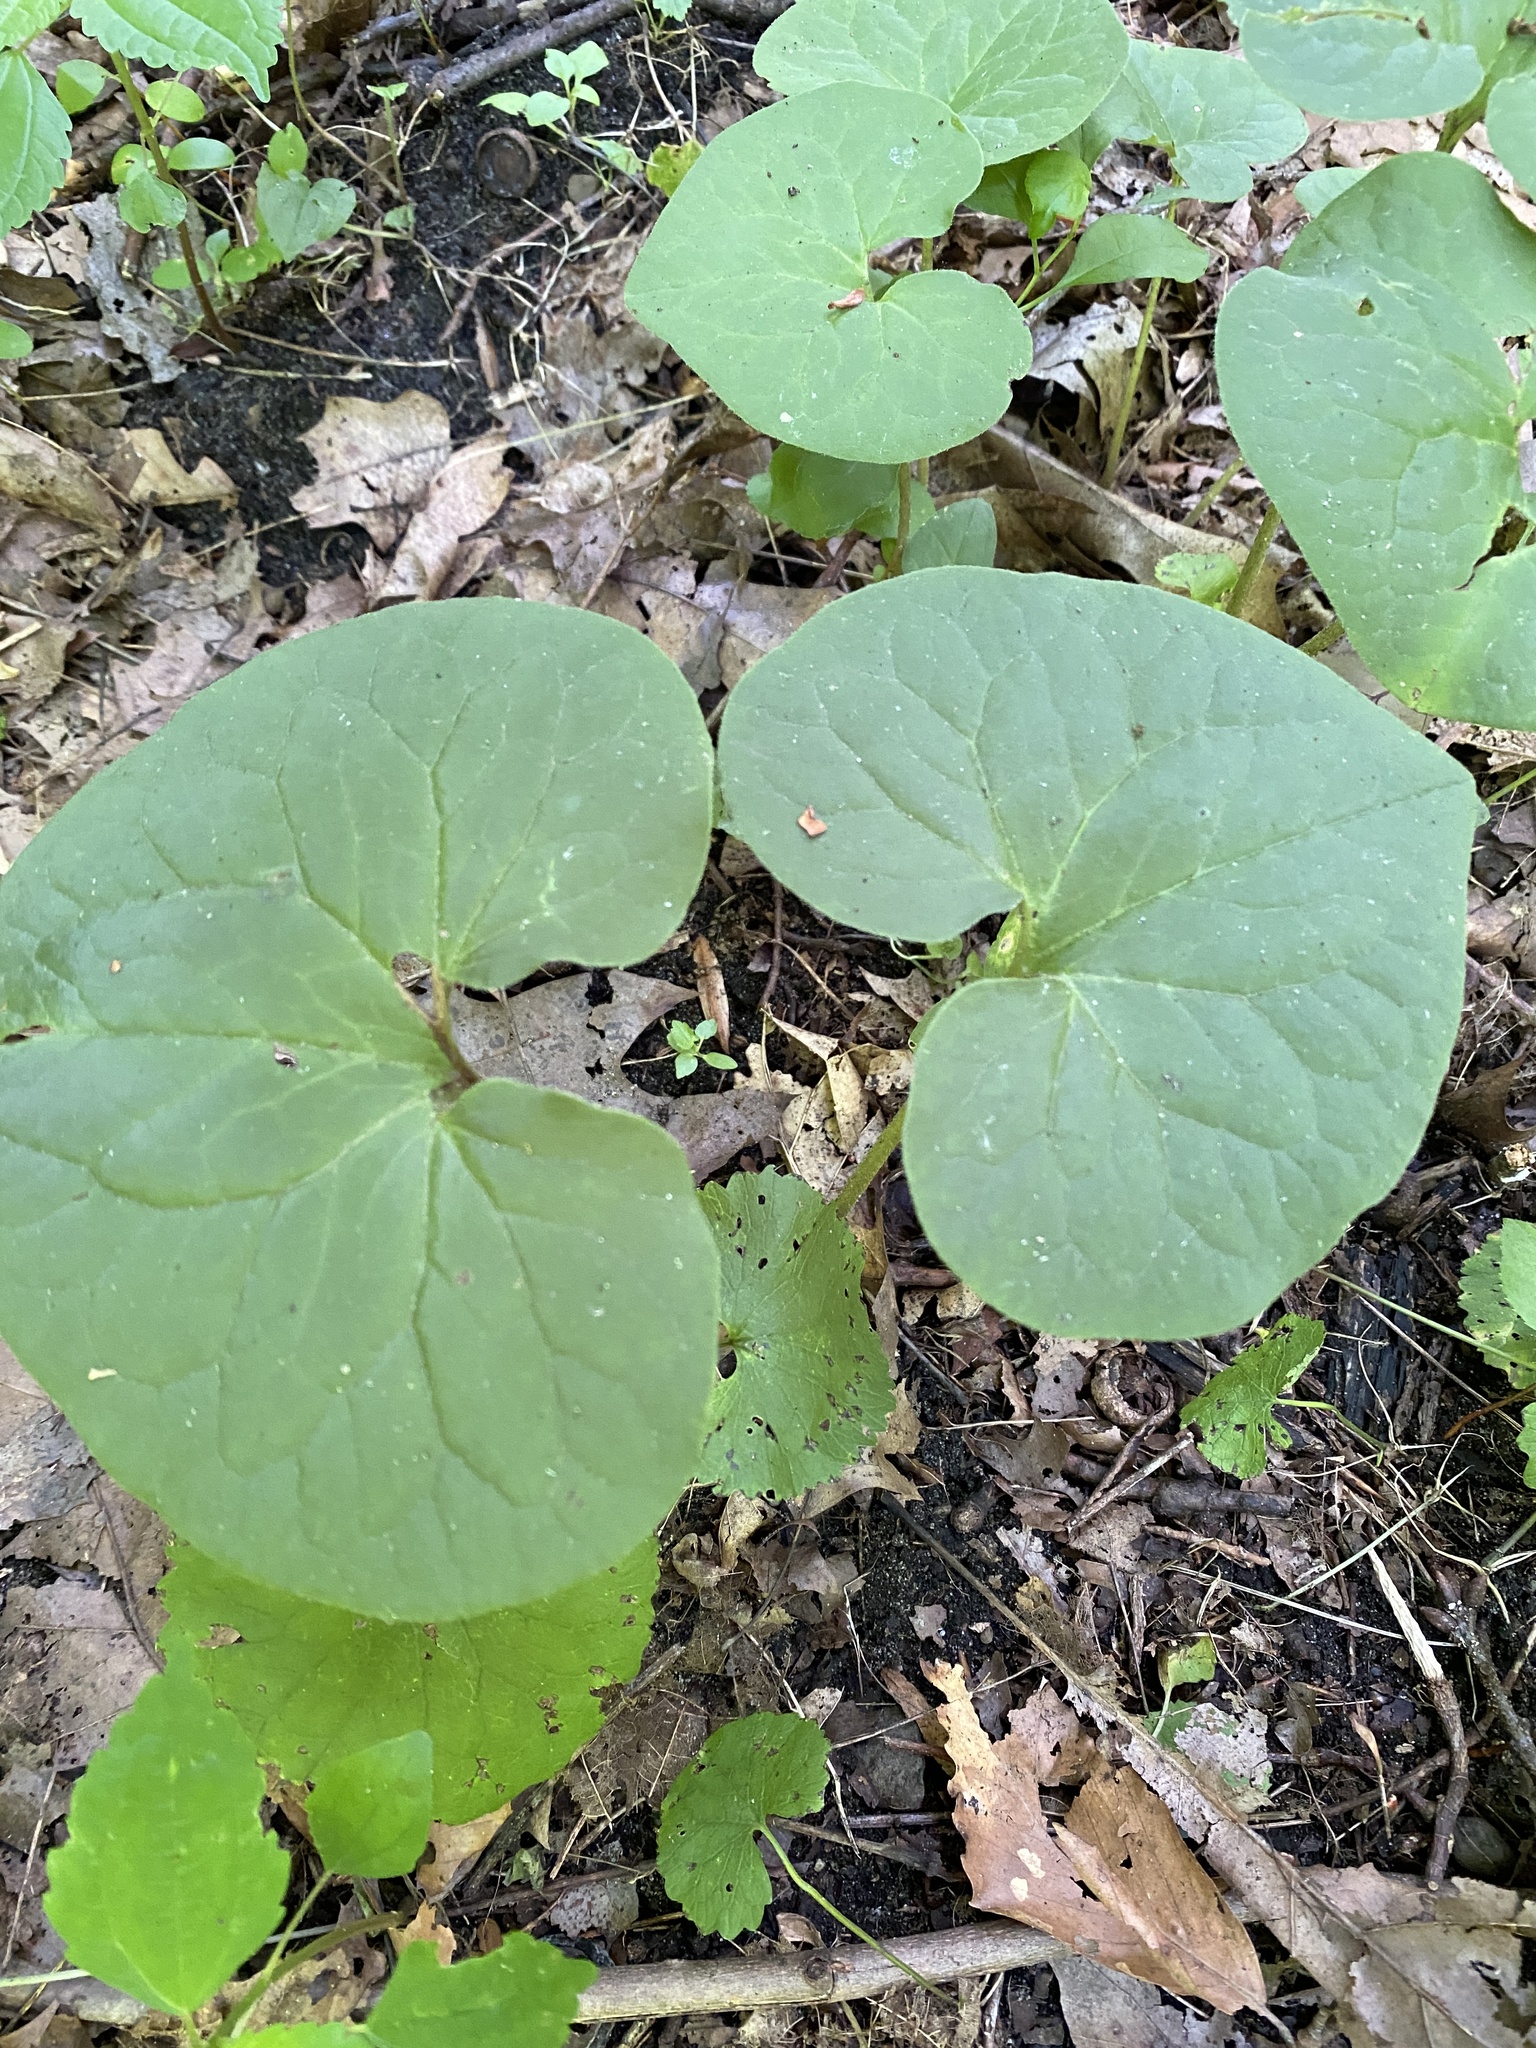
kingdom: Plantae
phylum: Tracheophyta
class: Magnoliopsida
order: Piperales
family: Aristolochiaceae
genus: Asarum
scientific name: Asarum canadense
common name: Wild ginger
